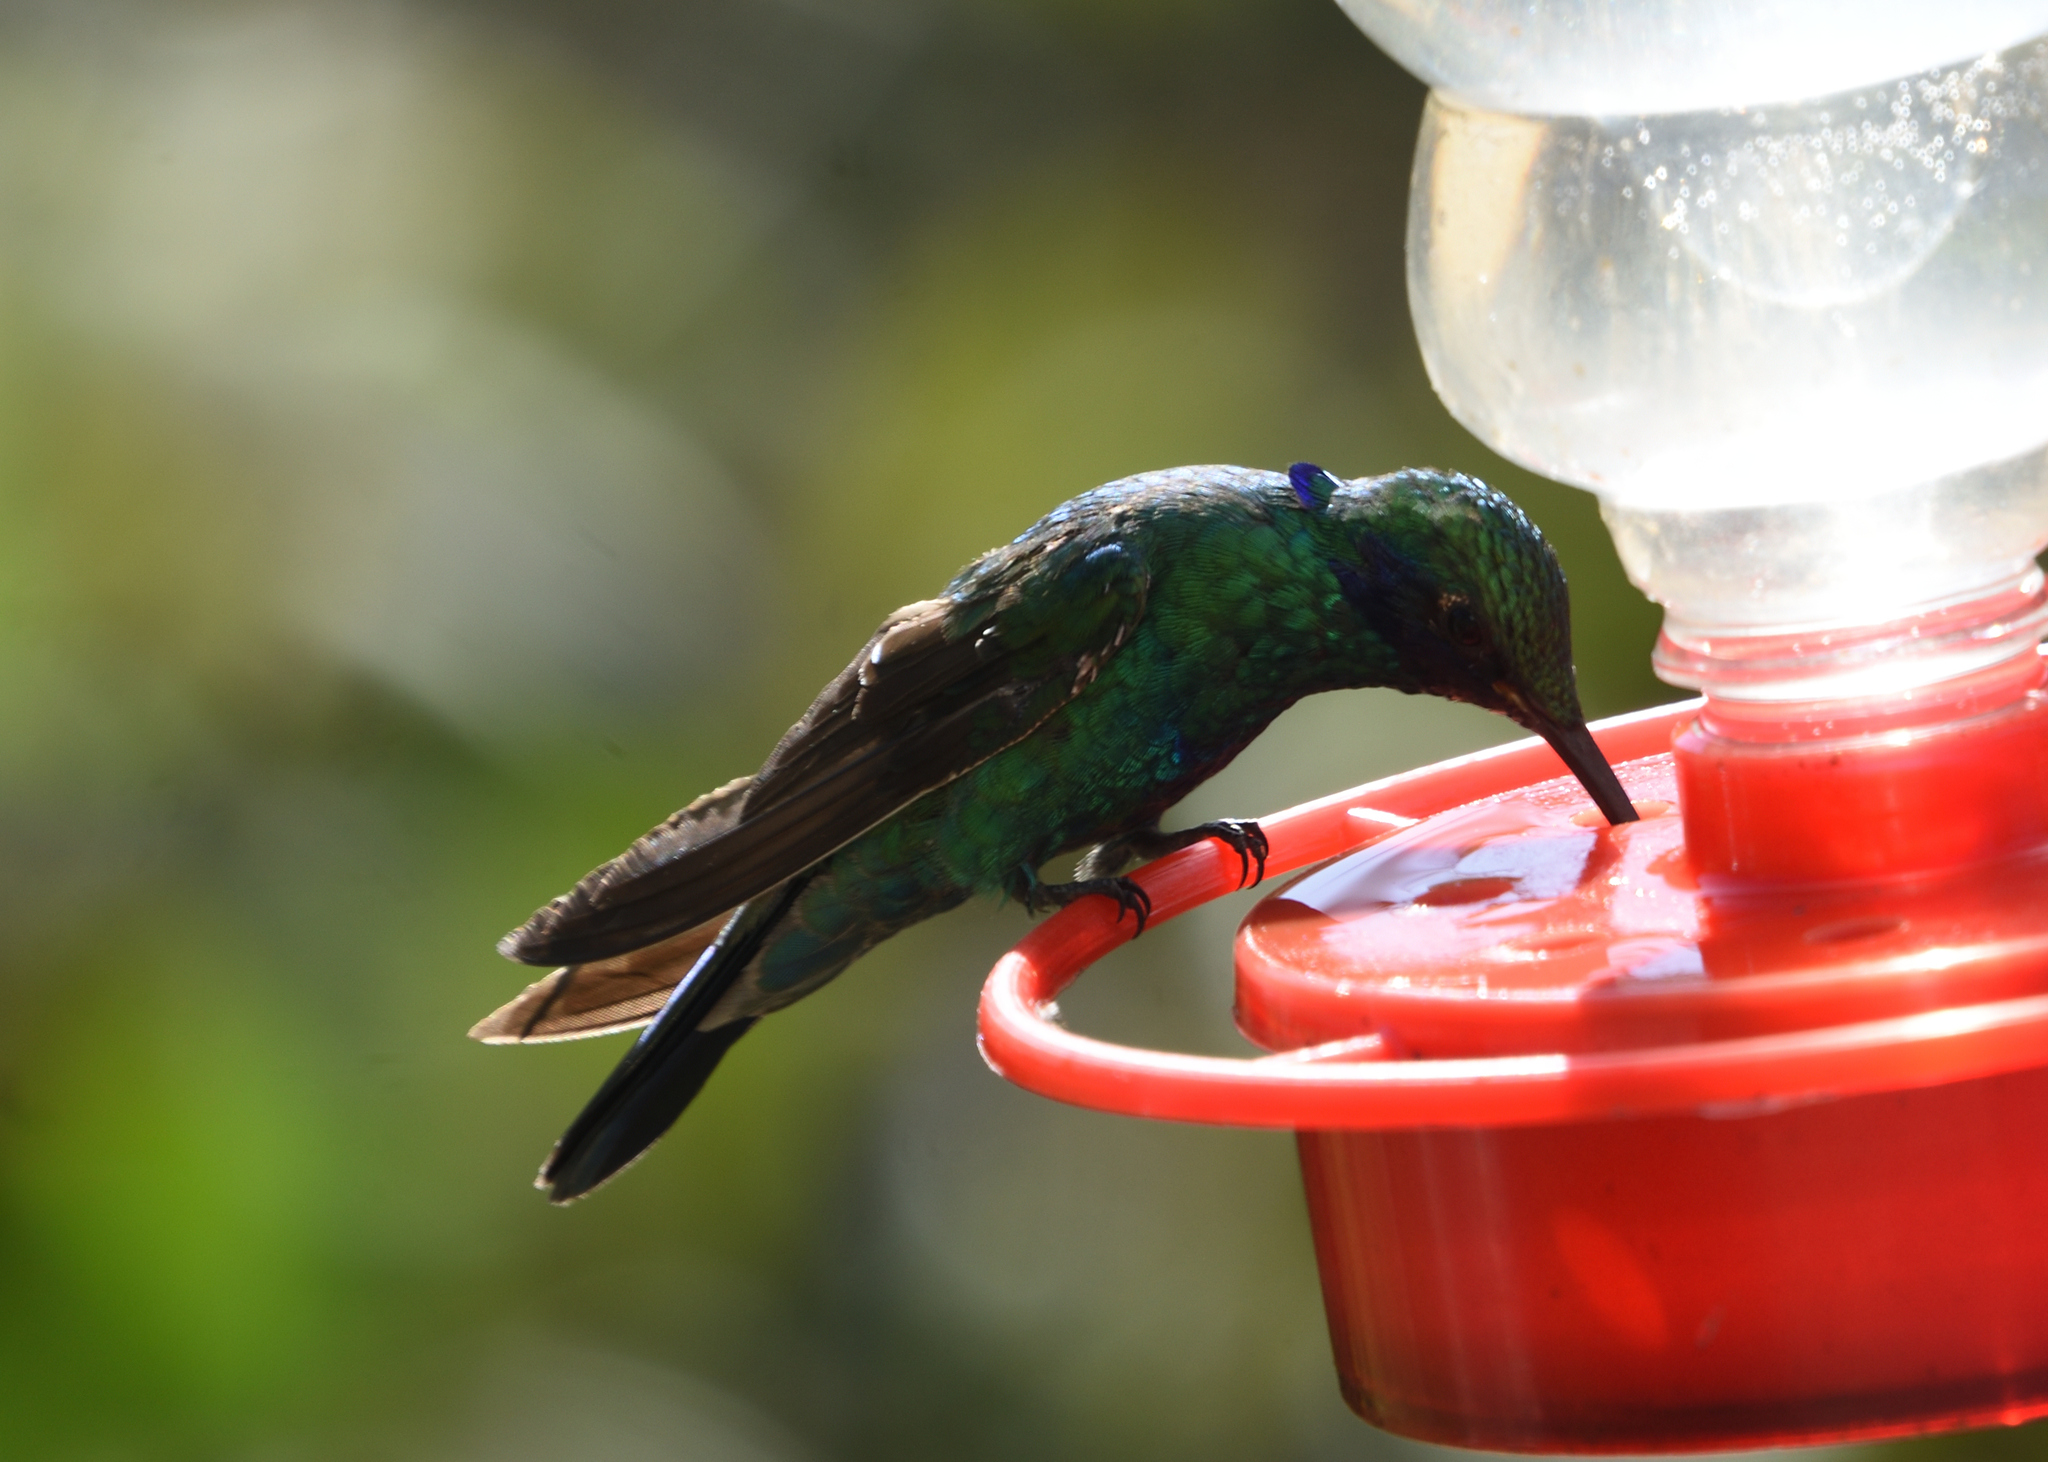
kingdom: Animalia
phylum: Chordata
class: Aves
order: Apodiformes
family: Trochilidae
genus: Colibri
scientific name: Colibri coruscans
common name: Sparkling violetear
